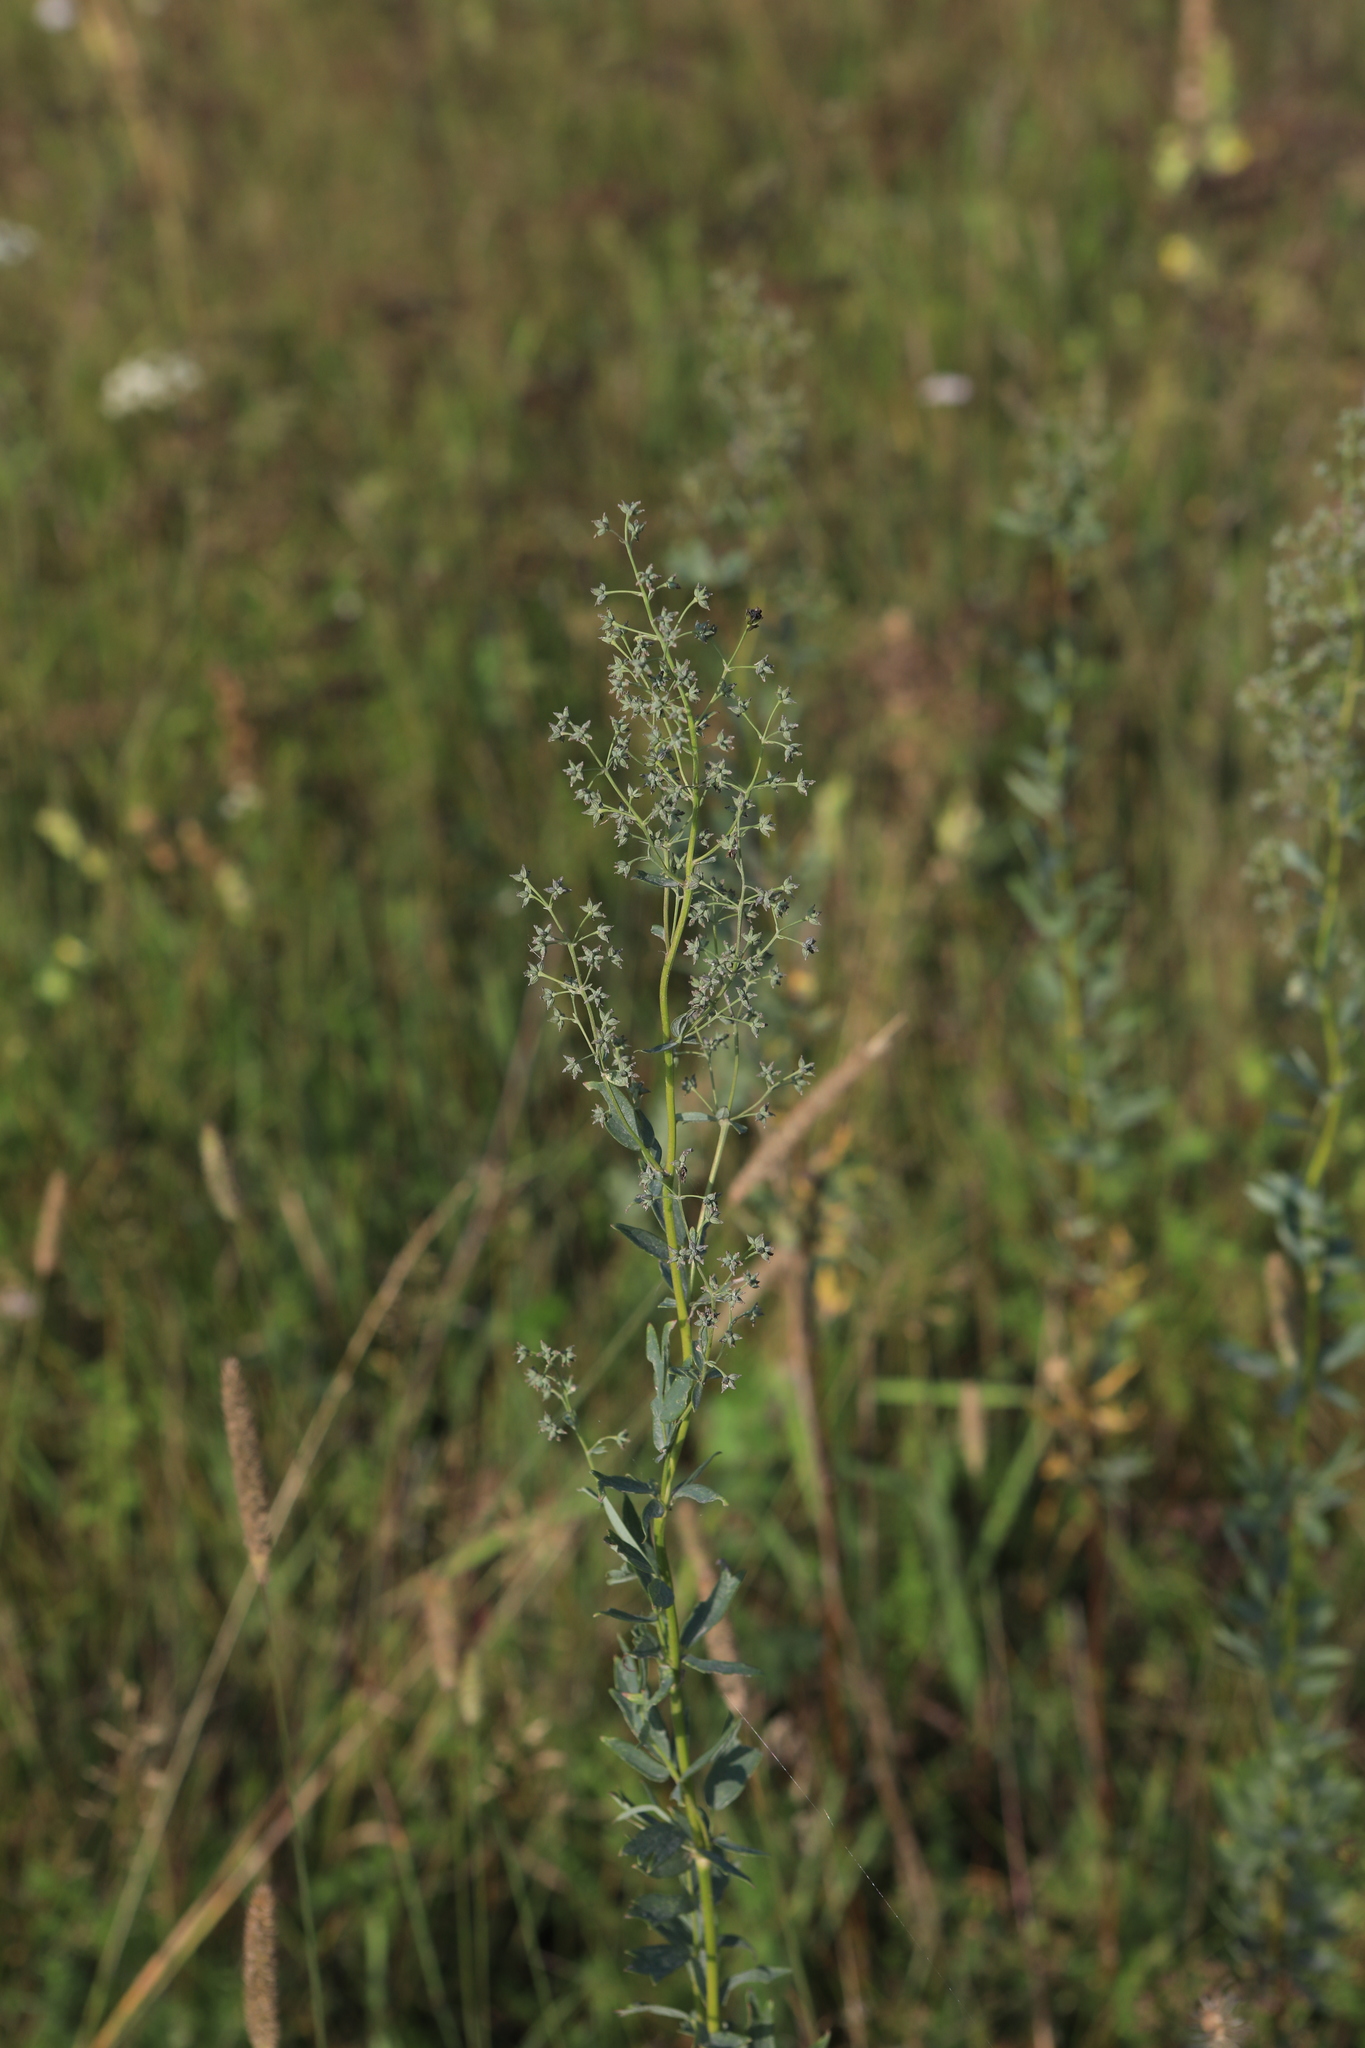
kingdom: Plantae
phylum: Tracheophyta
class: Magnoliopsida
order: Ranunculales
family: Ranunculaceae
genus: Thalictrum
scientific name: Thalictrum simplex
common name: Small meadow-rue
